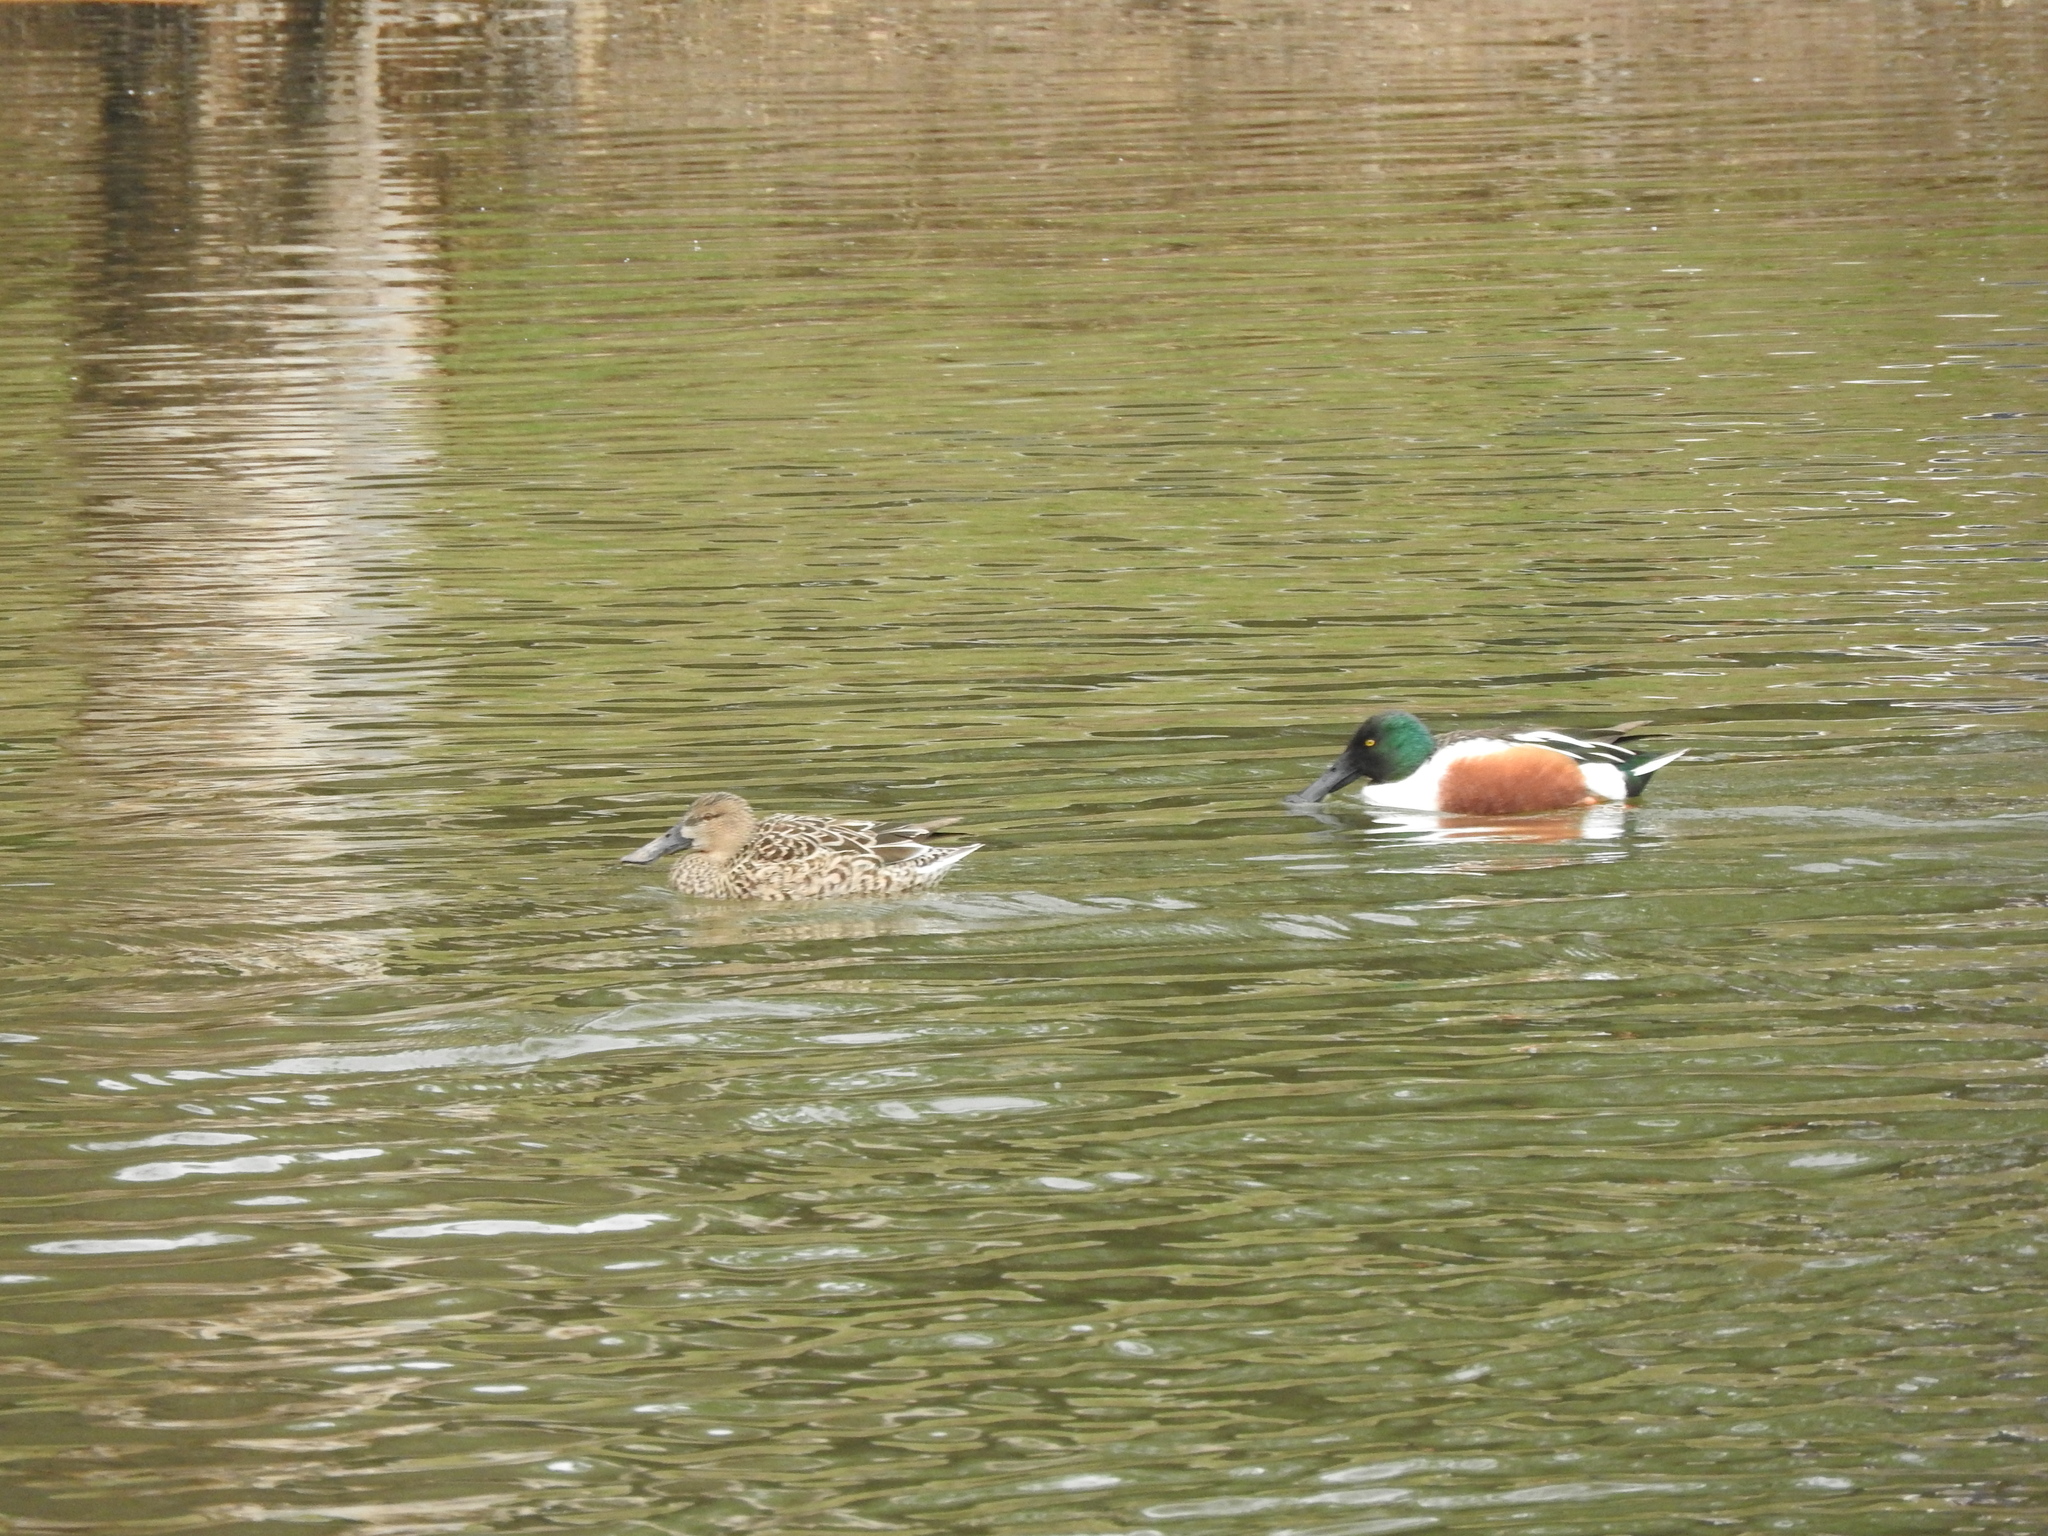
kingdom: Animalia
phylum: Chordata
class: Aves
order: Anseriformes
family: Anatidae
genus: Spatula
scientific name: Spatula clypeata
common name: Northern shoveler
